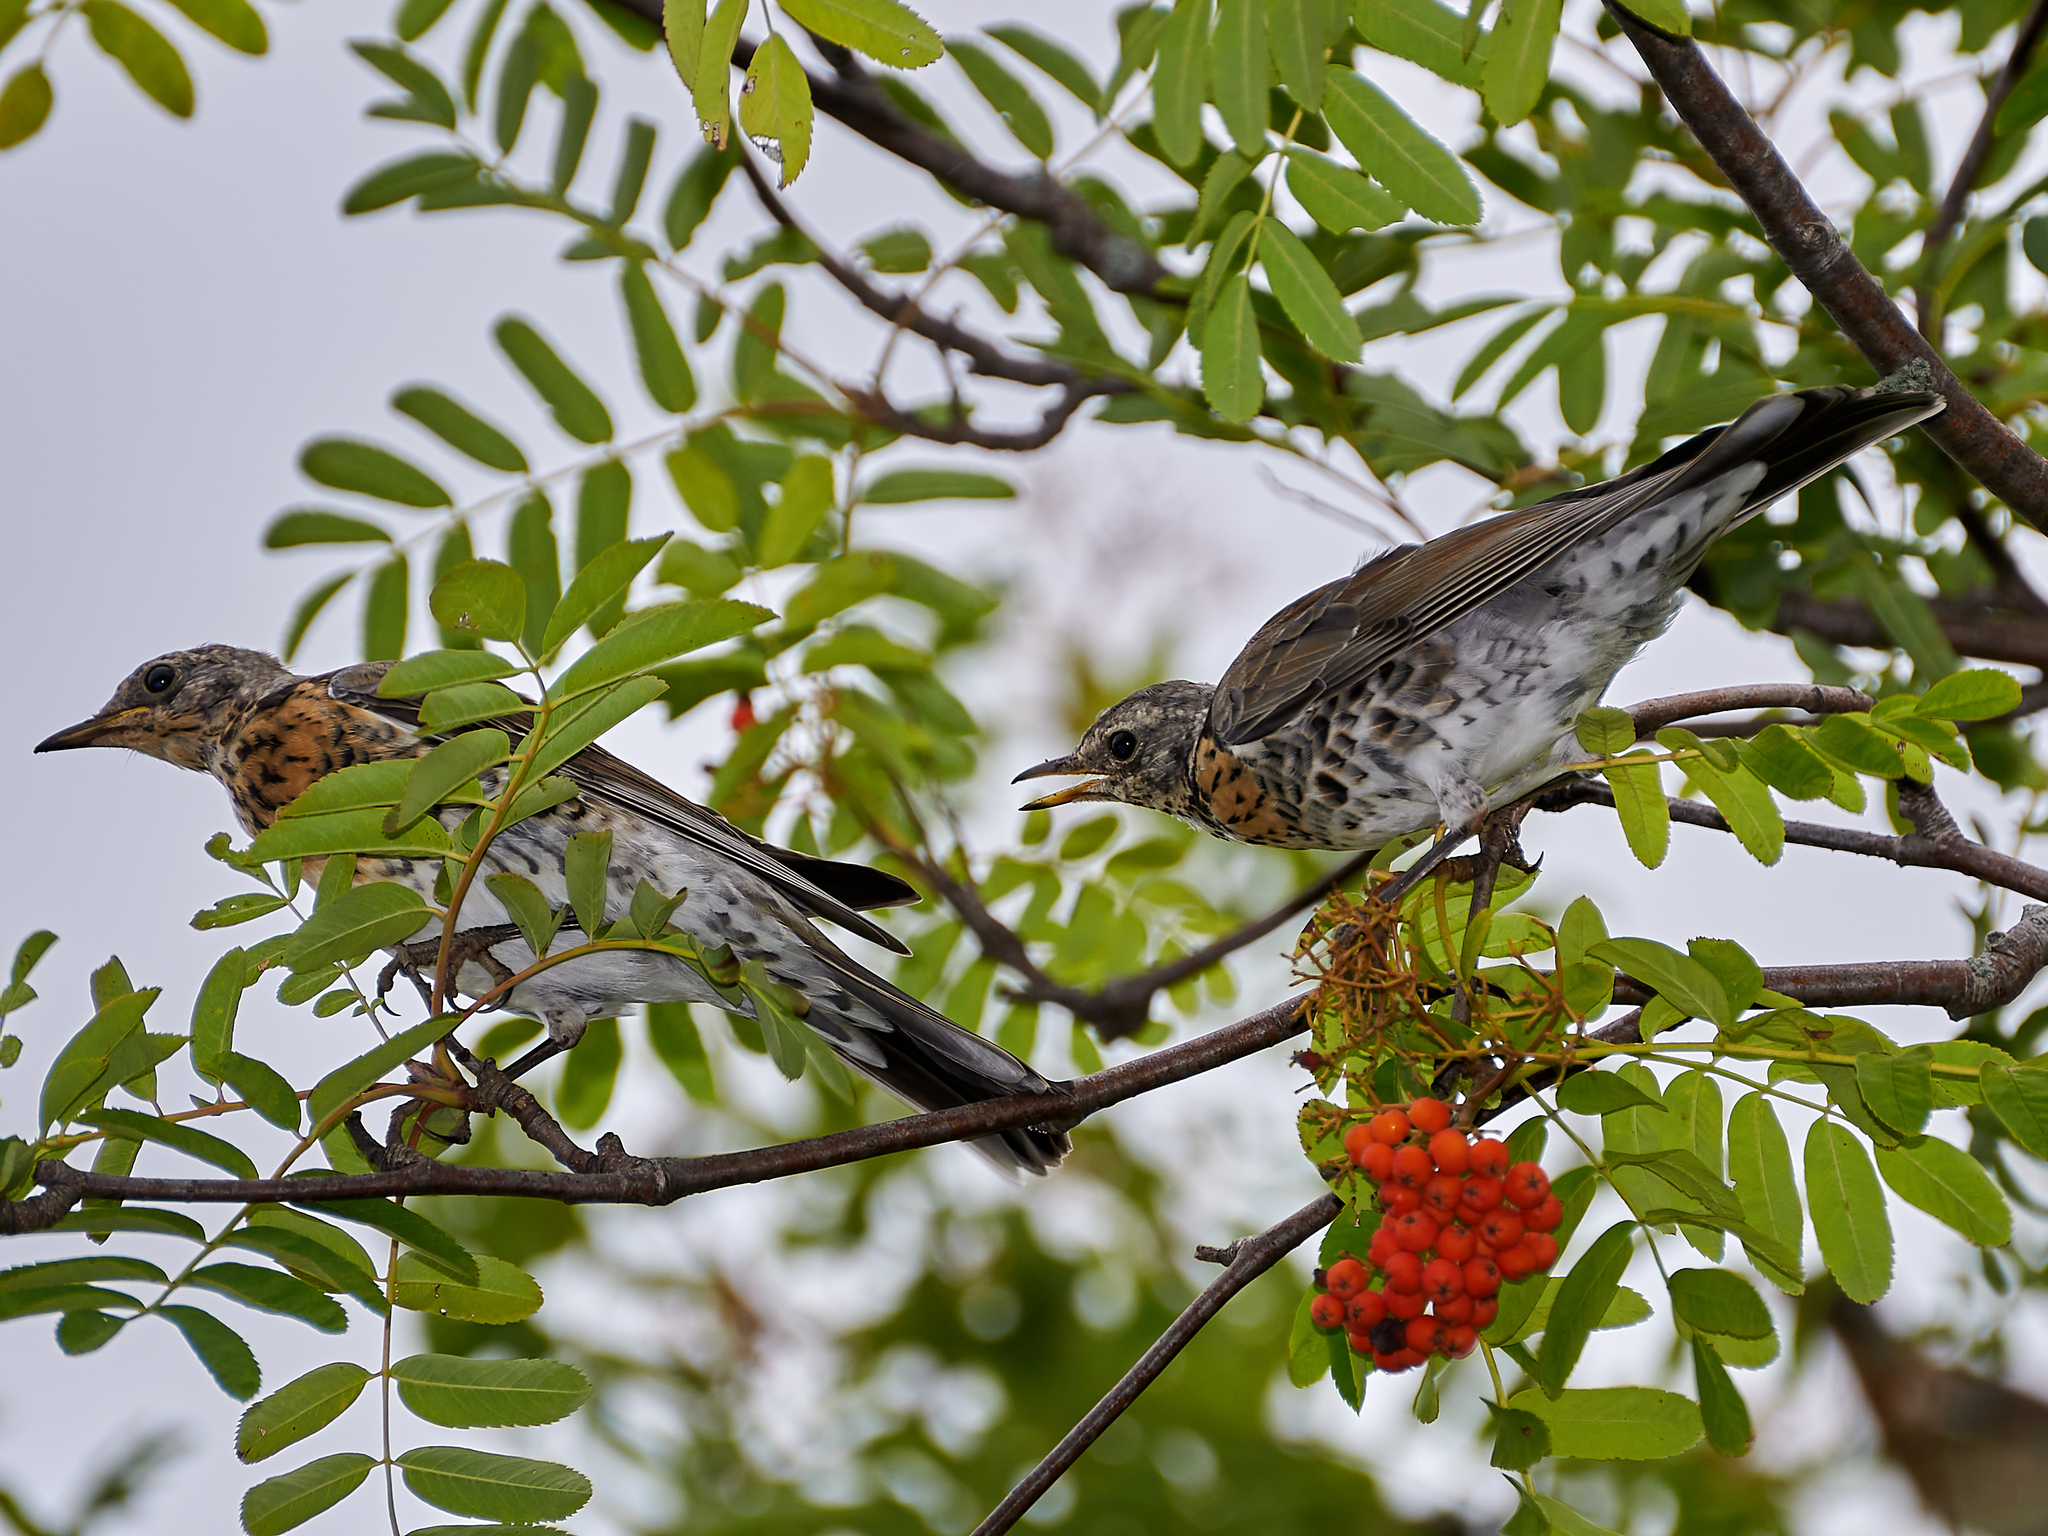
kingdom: Animalia
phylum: Chordata
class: Aves
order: Passeriformes
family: Turdidae
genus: Turdus
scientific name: Turdus pilaris
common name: Fieldfare
